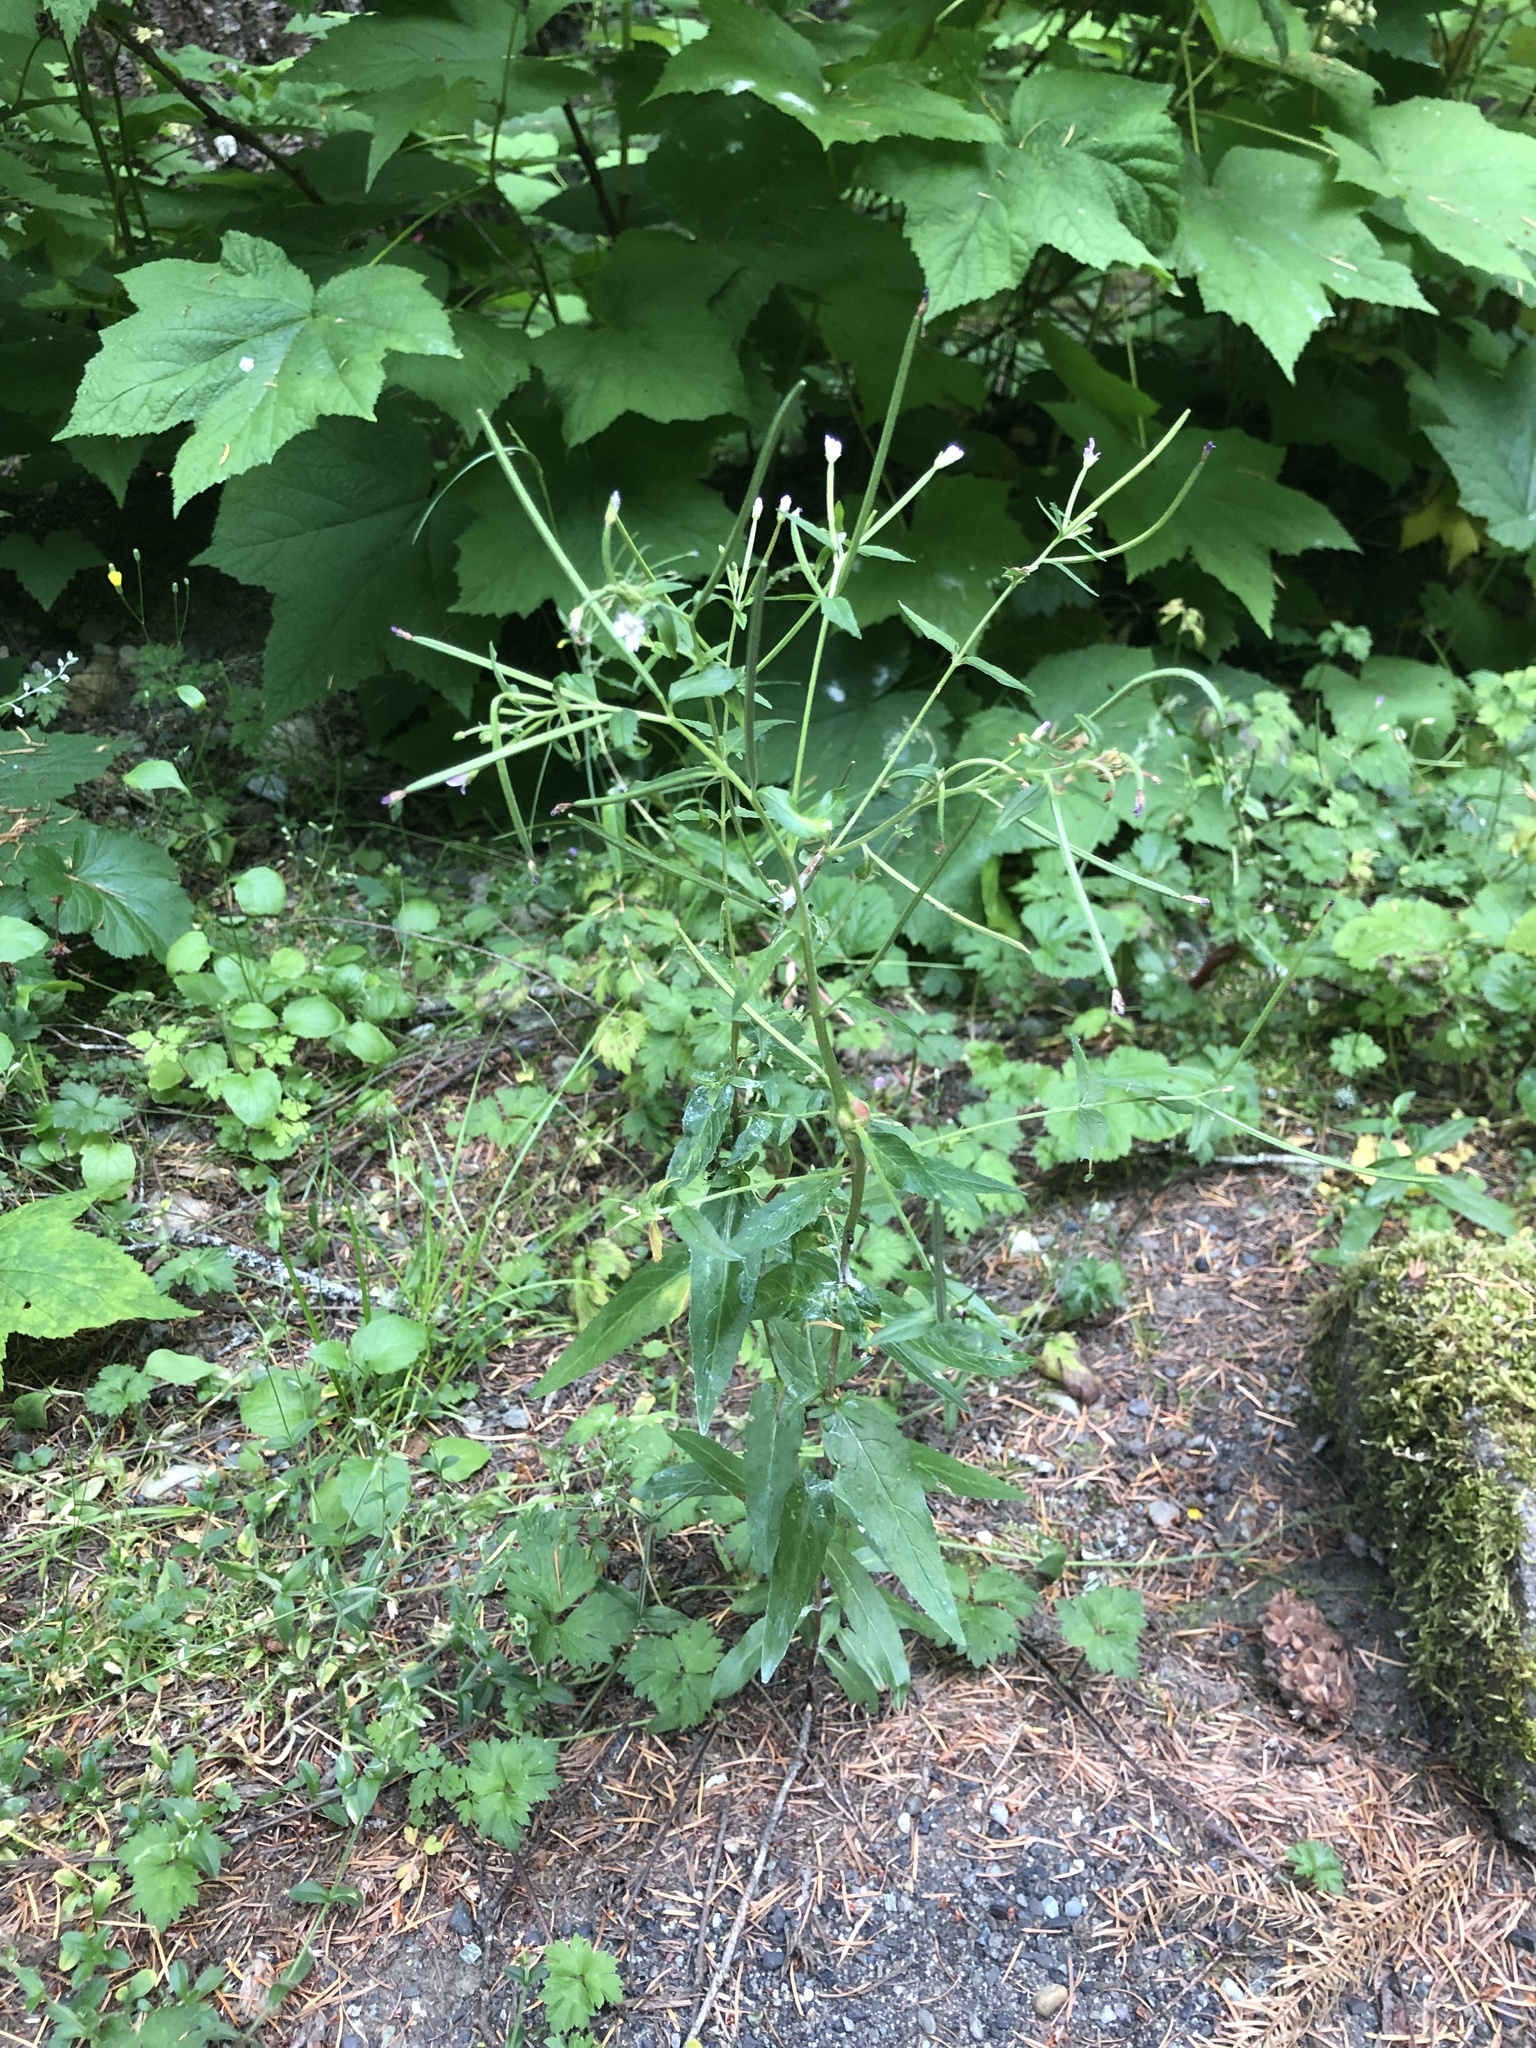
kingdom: Plantae
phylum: Tracheophyta
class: Magnoliopsida
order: Myrtales
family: Onagraceae
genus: Epilobium
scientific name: Epilobium ciliatum
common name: American willowherb
